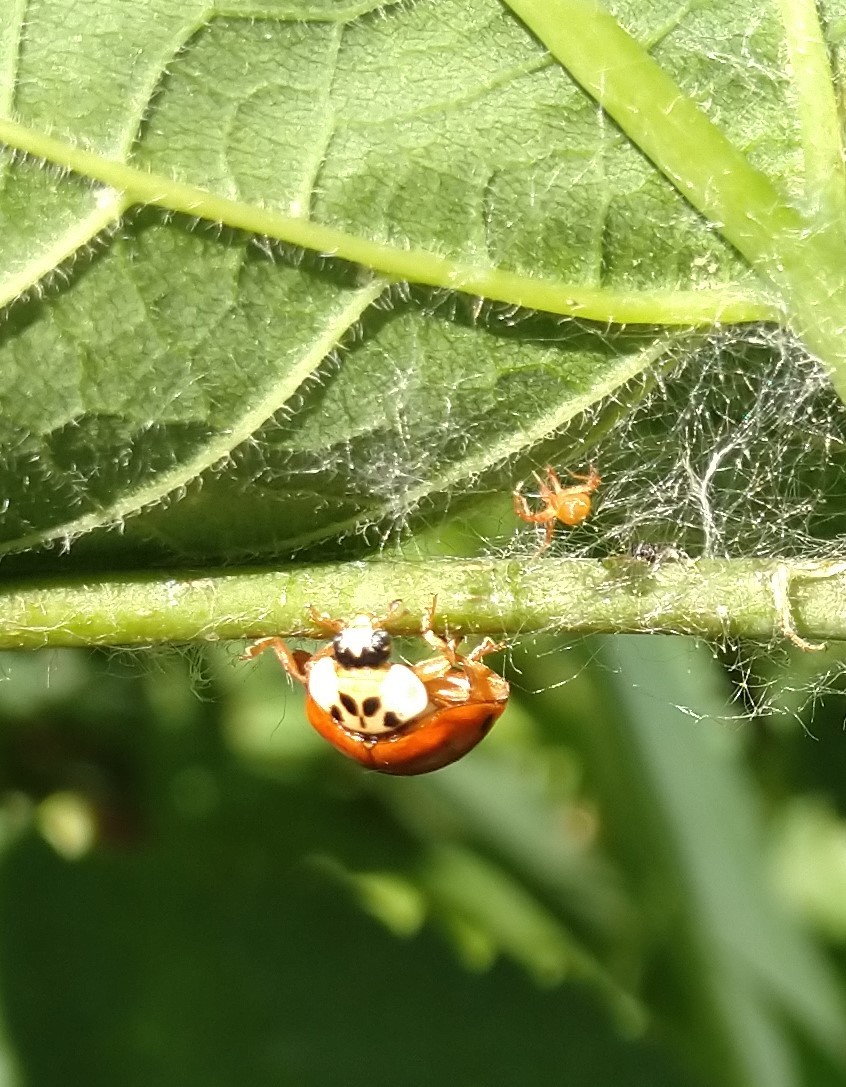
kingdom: Animalia
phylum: Arthropoda
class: Insecta
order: Coleoptera
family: Coccinellidae
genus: Harmonia
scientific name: Harmonia axyridis
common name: Harlequin ladybird
